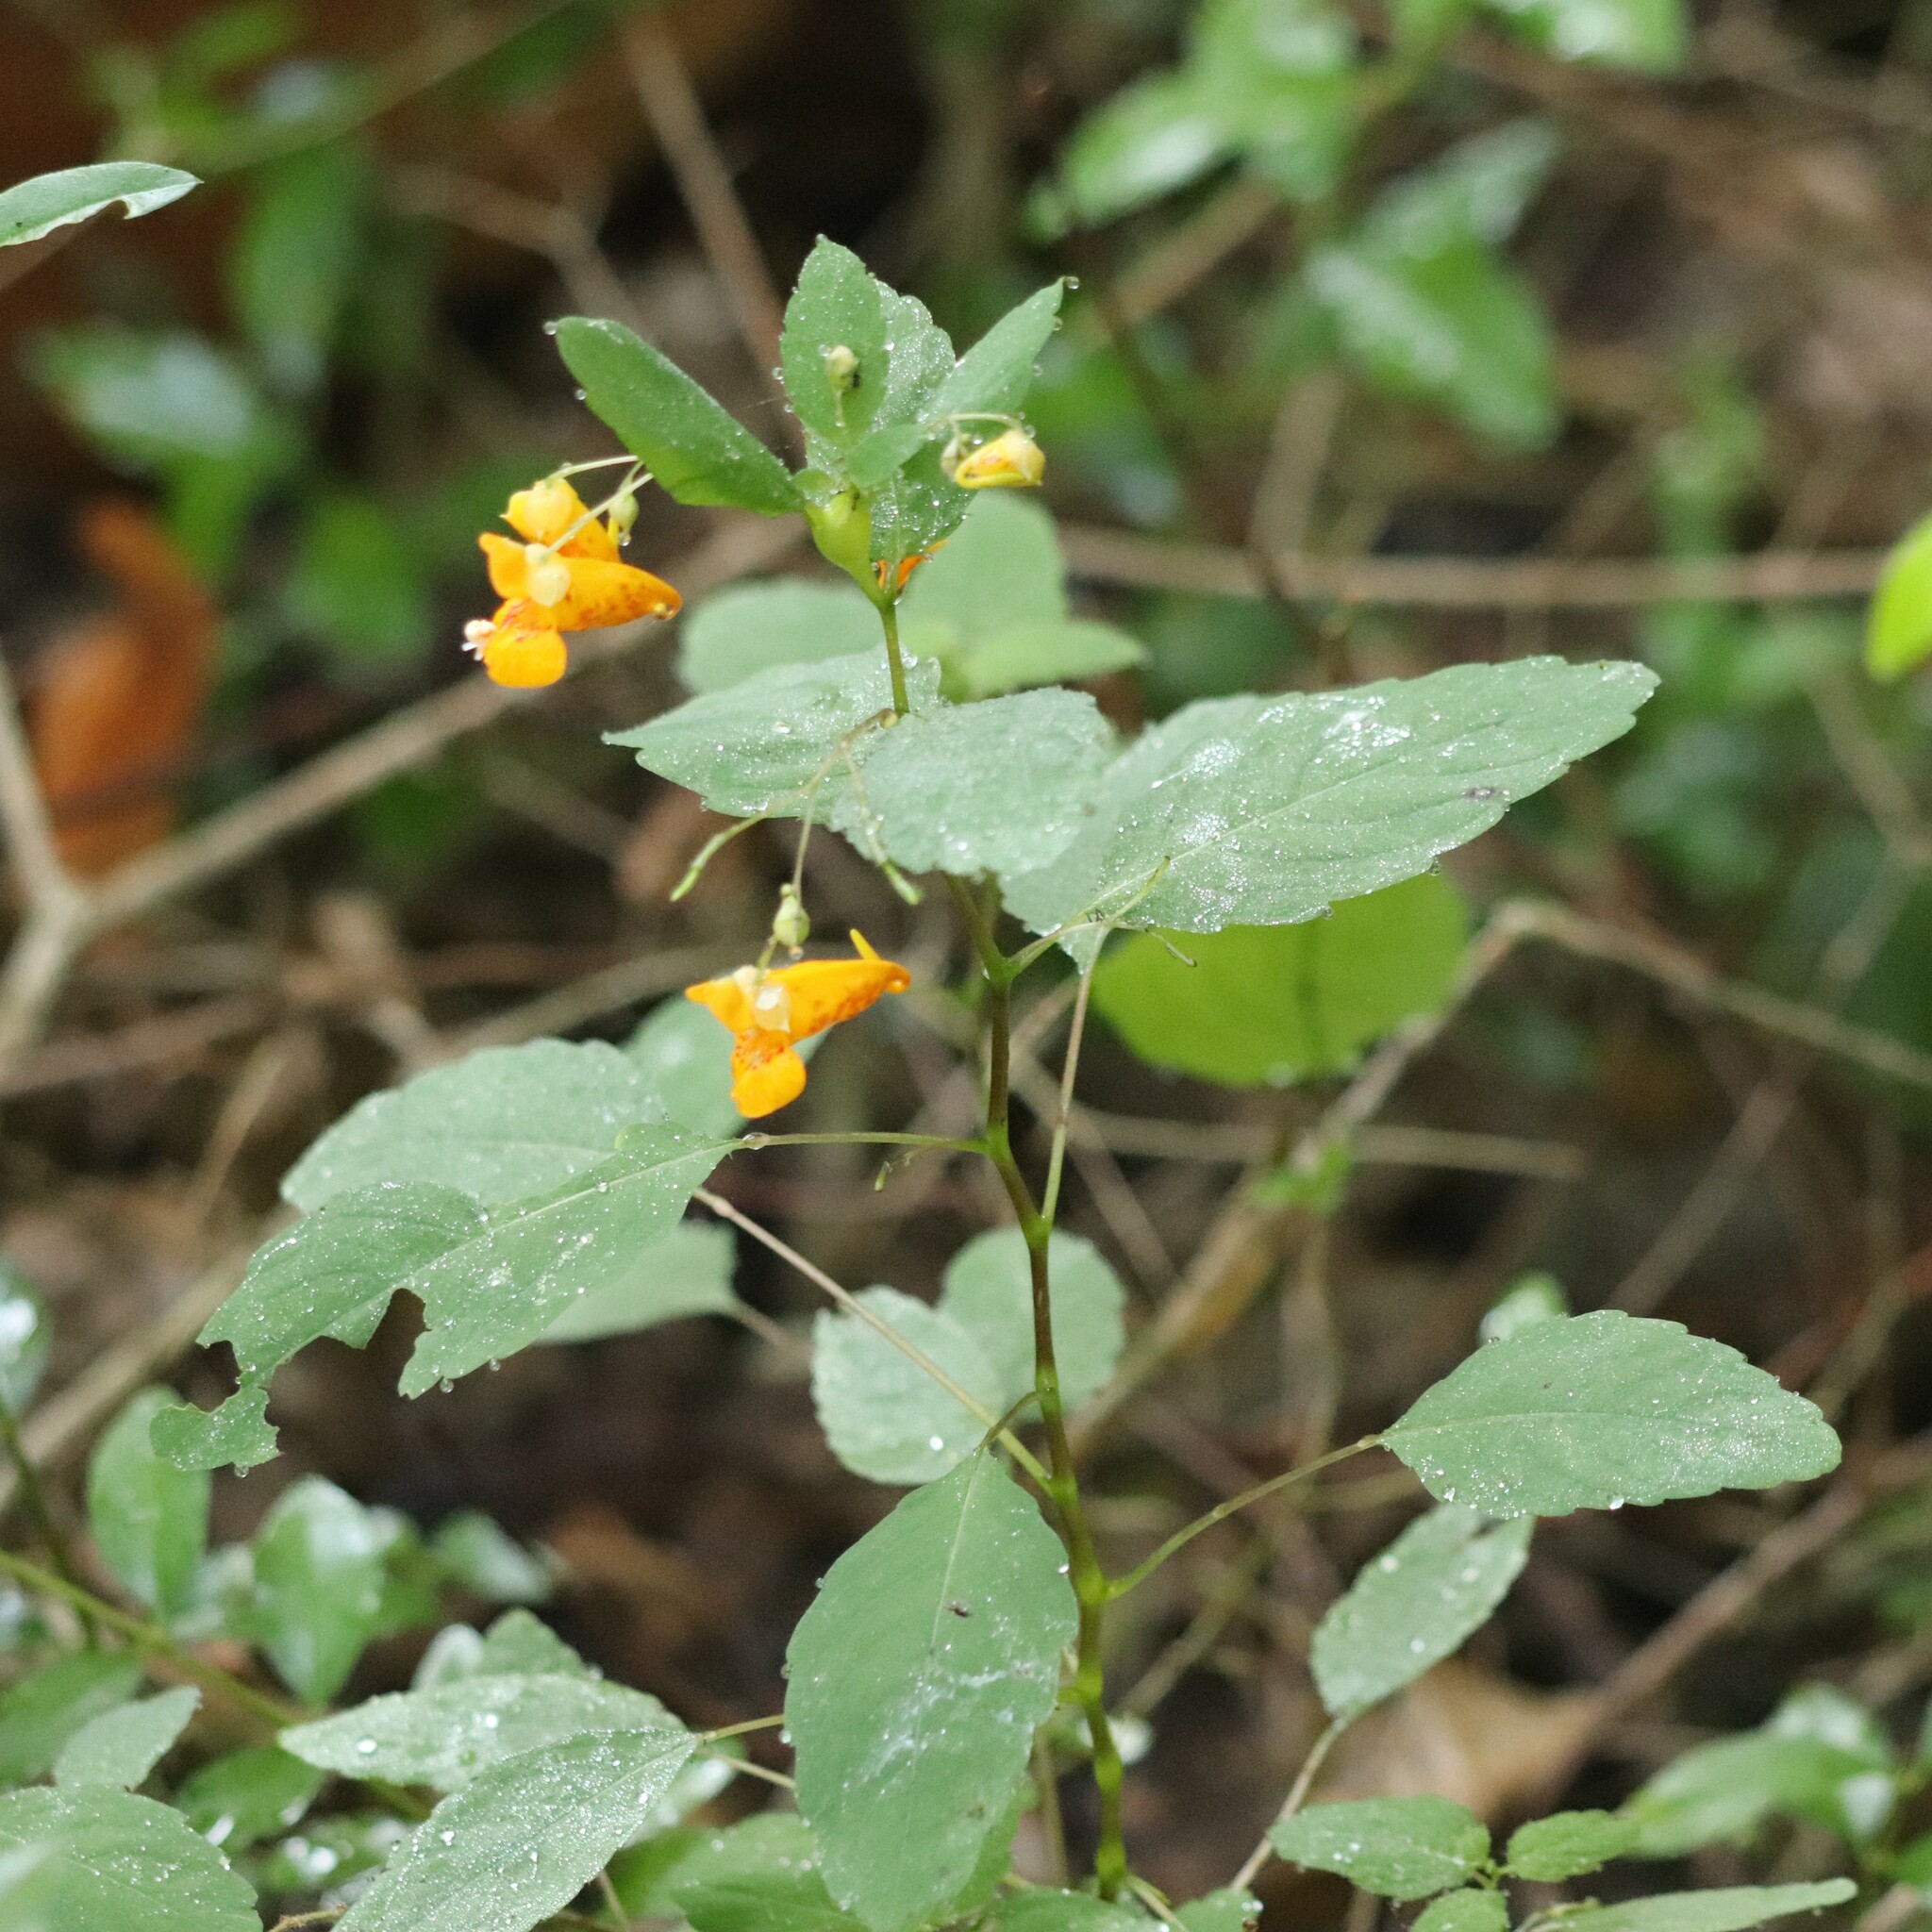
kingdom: Plantae
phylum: Tracheophyta
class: Magnoliopsida
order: Ericales
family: Balsaminaceae
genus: Impatiens
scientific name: Impatiens capensis
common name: Orange balsam
